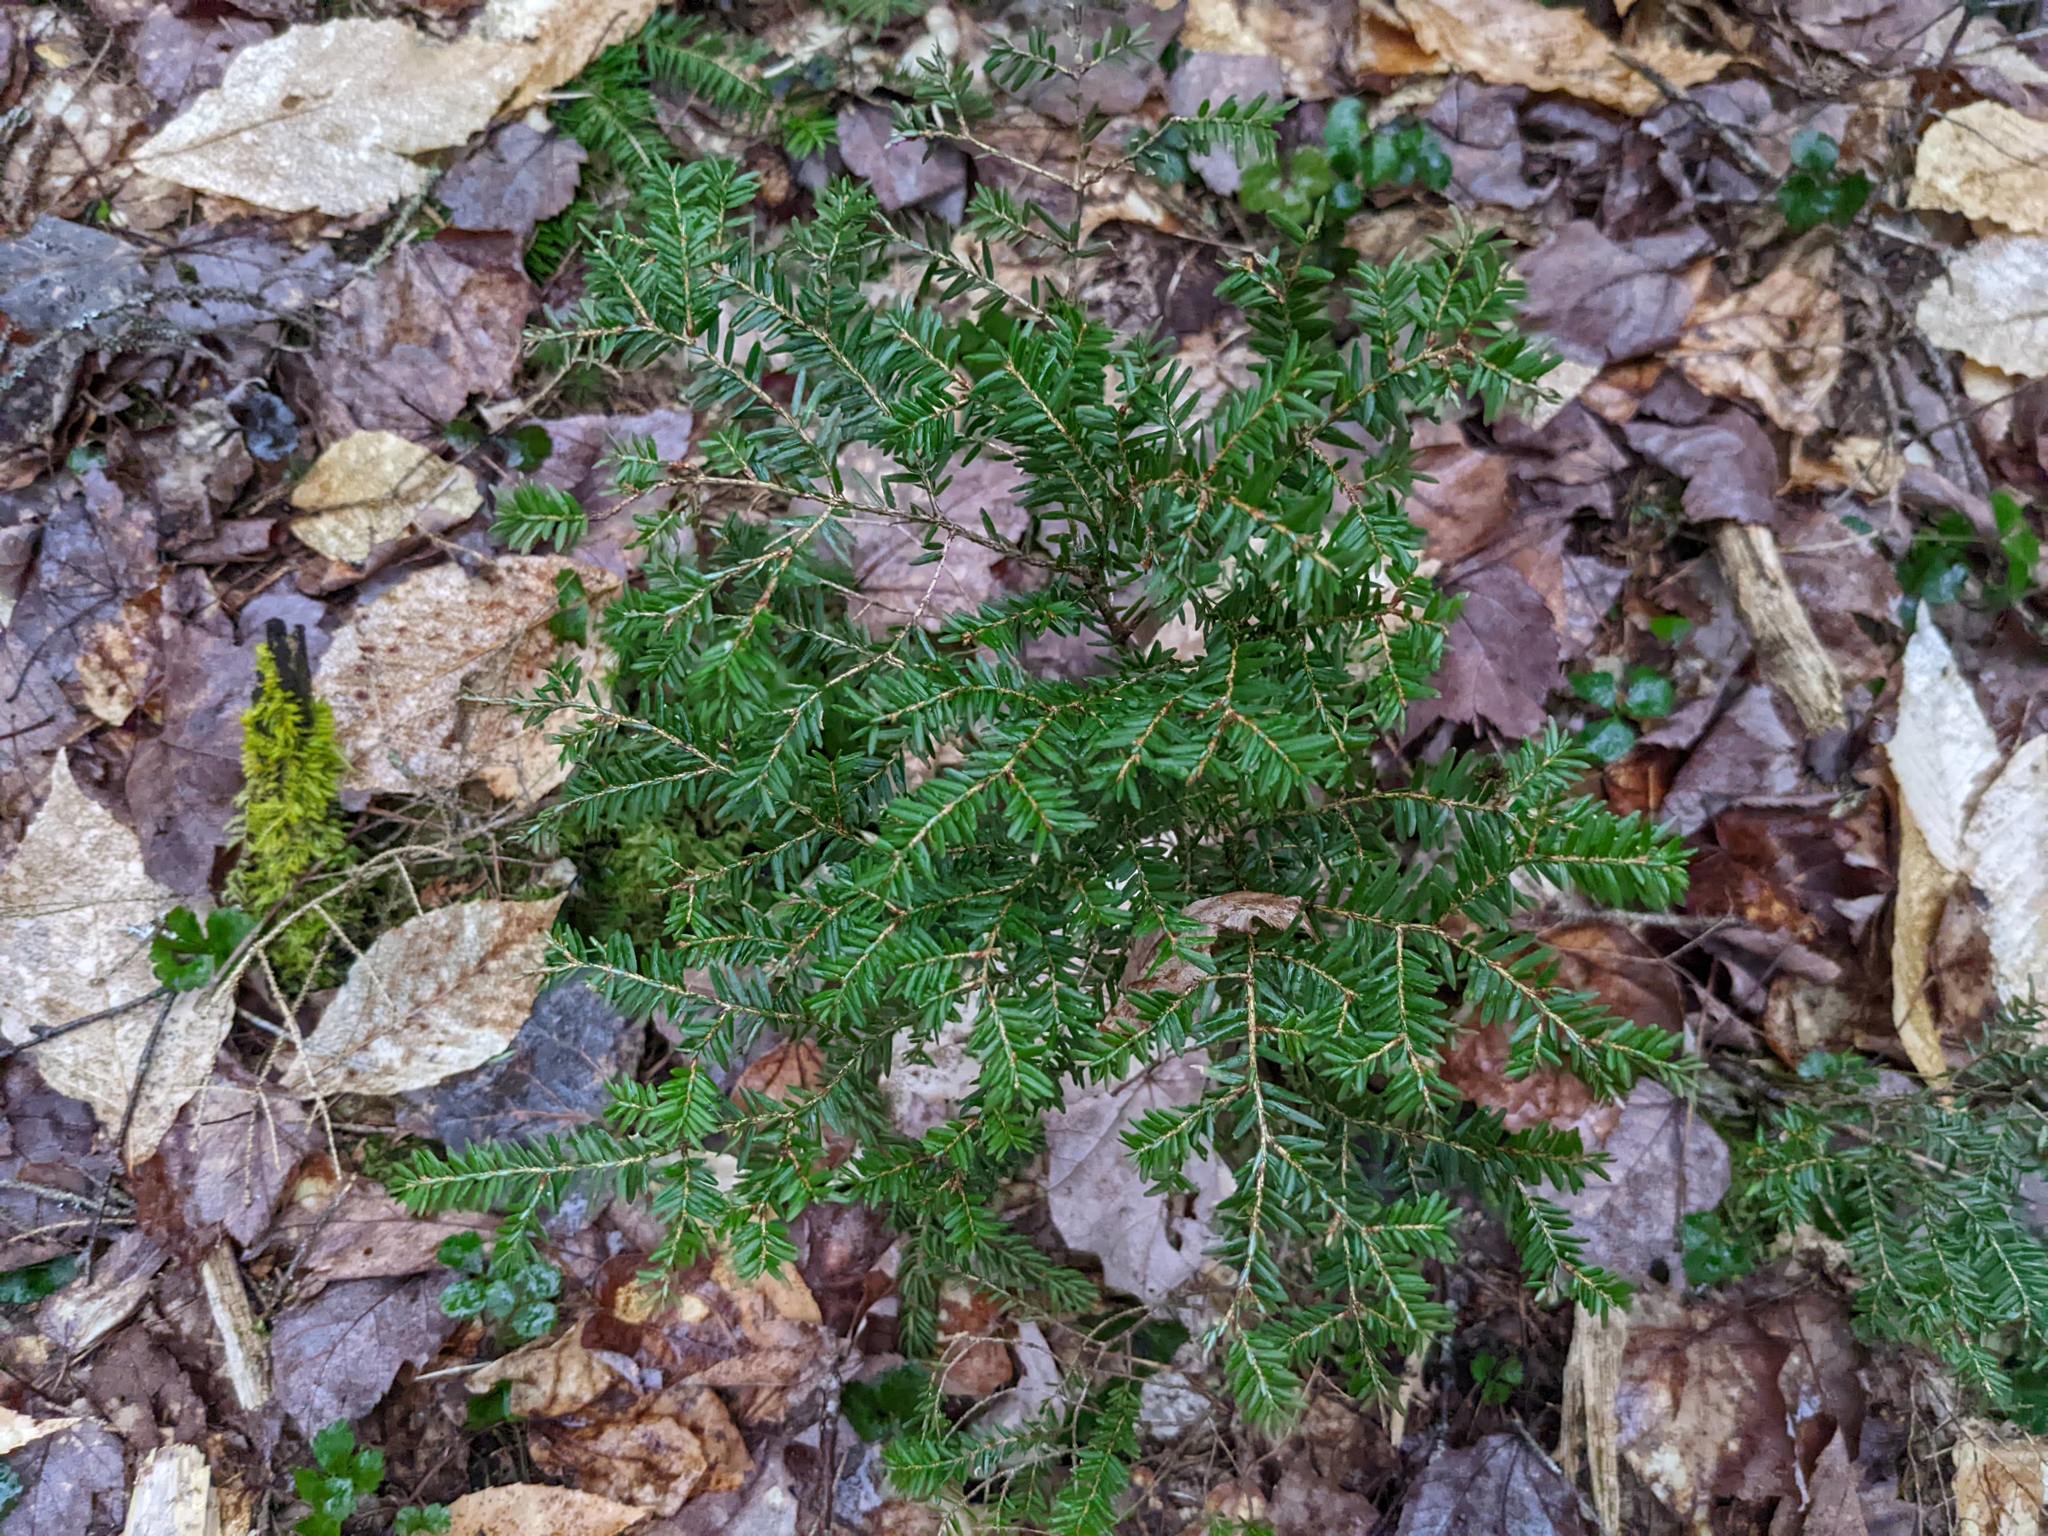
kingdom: Plantae
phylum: Tracheophyta
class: Pinopsida
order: Pinales
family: Pinaceae
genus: Tsuga
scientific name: Tsuga canadensis
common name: Eastern hemlock
